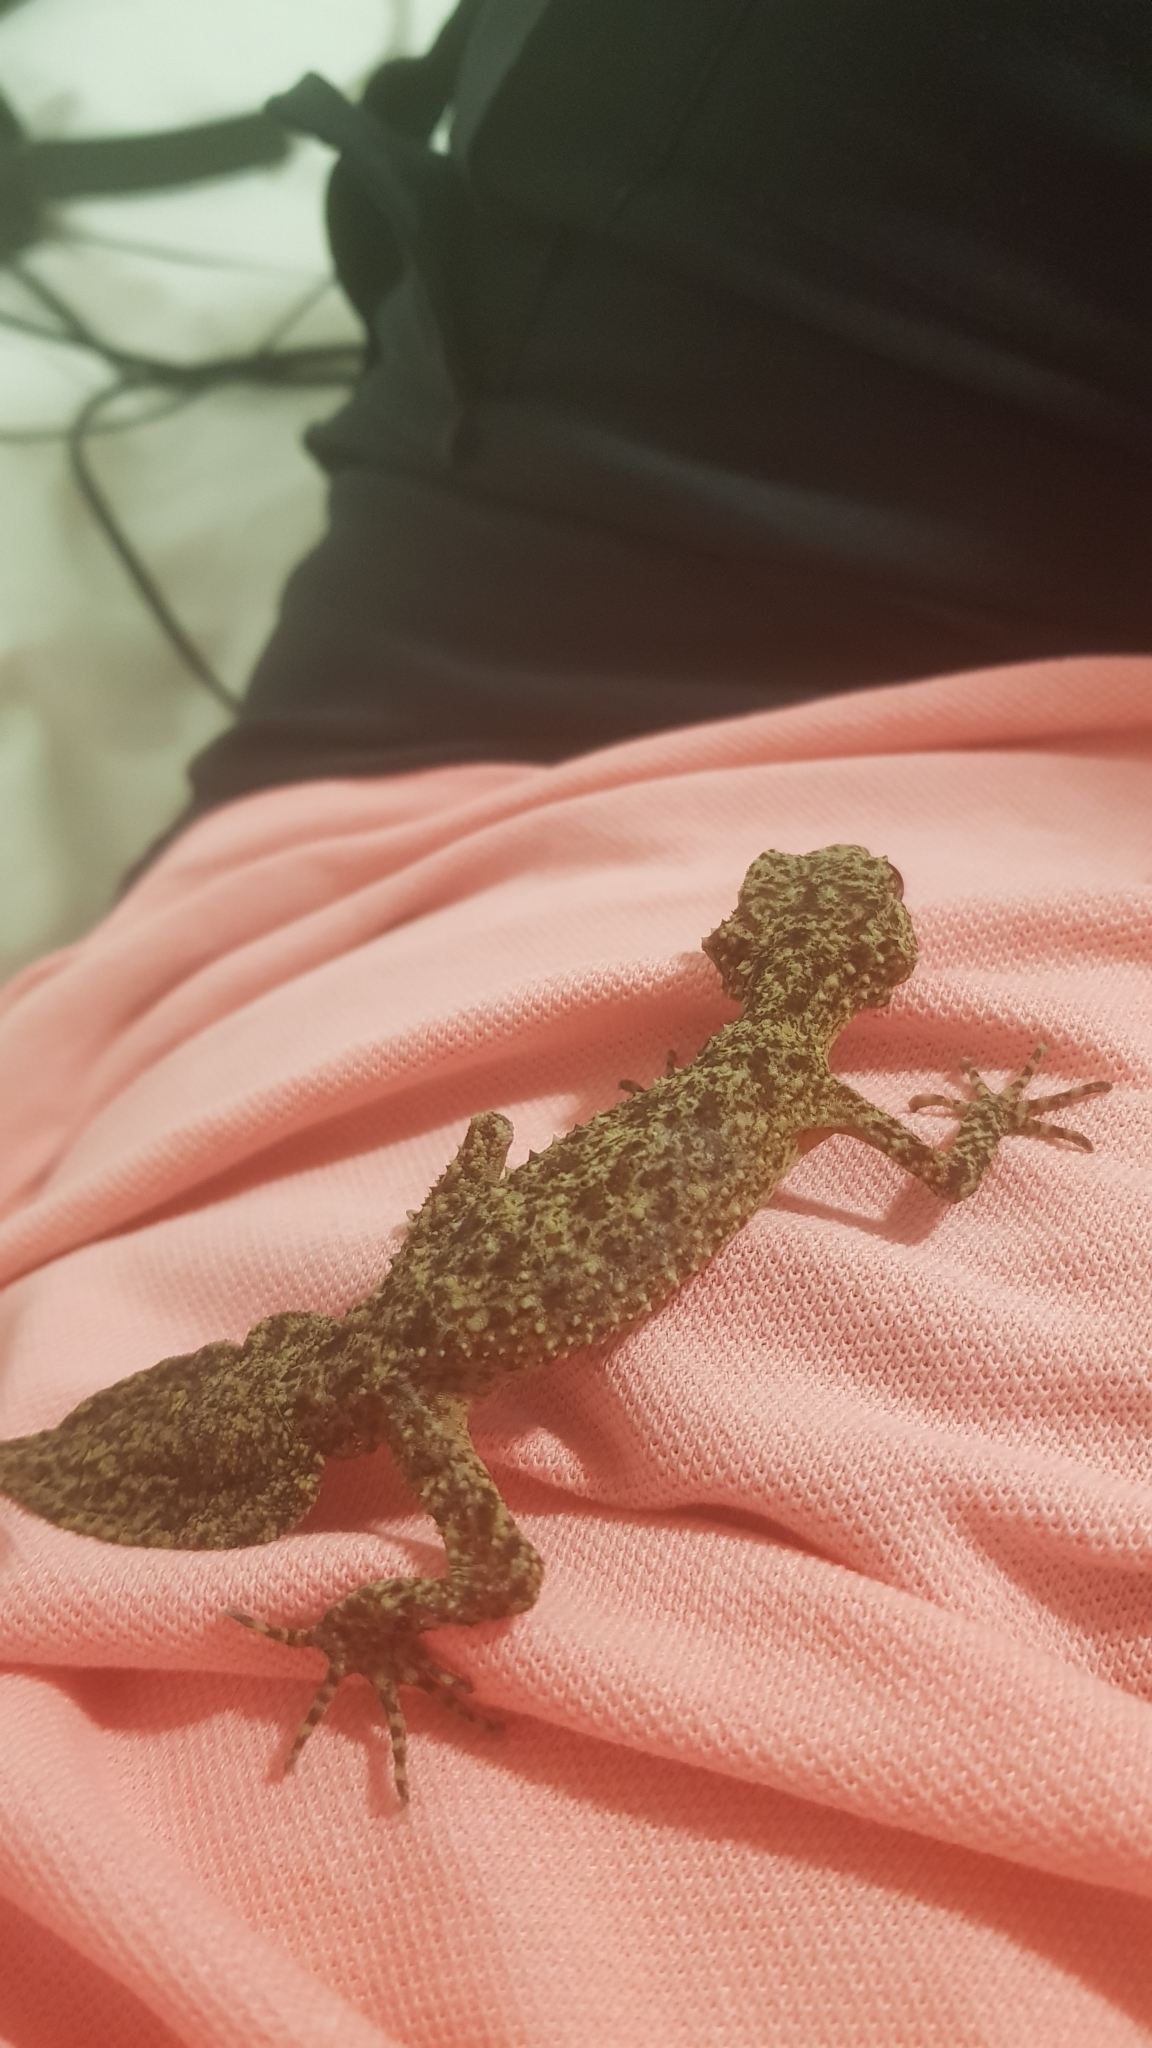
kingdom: Animalia
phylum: Chordata
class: Squamata
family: Carphodactylidae
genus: Phyllurus
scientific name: Phyllurus platurus
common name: Broad-tailed gecko
